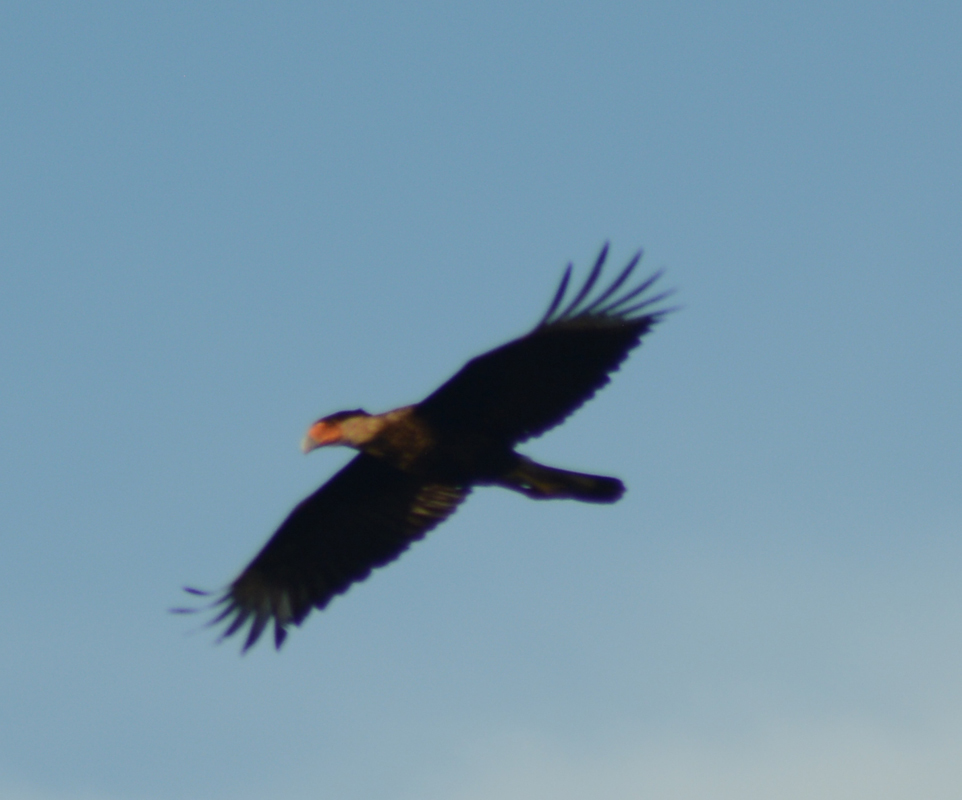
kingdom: Animalia
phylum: Chordata
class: Aves
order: Falconiformes
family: Falconidae
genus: Caracara
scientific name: Caracara plancus
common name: Southern caracara
